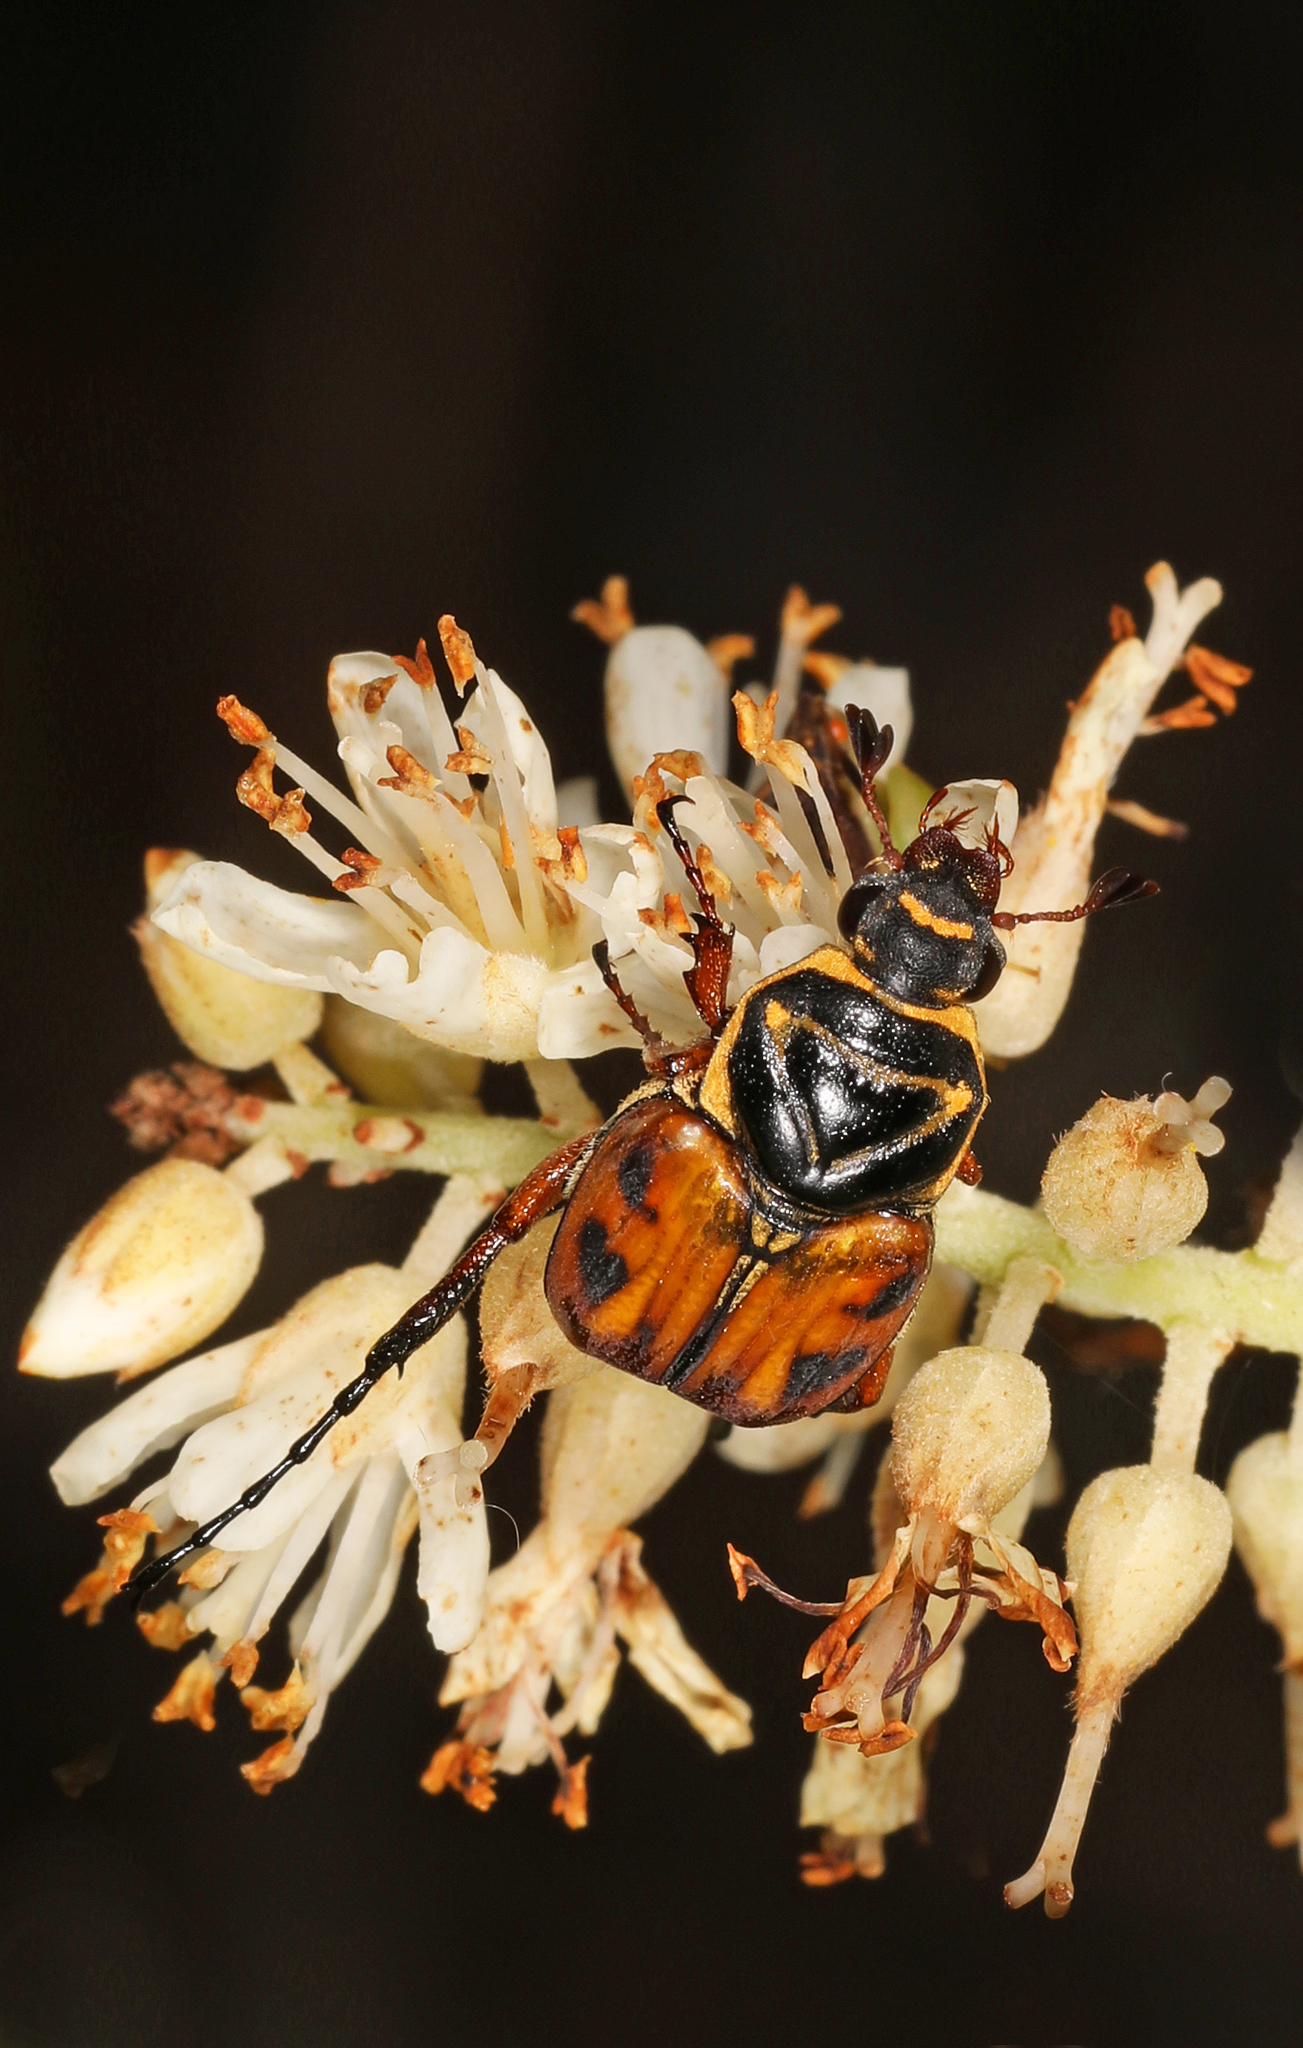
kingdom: Animalia
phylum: Arthropoda
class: Insecta
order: Coleoptera
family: Scarabaeidae
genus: Trigonopeltastes
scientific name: Trigonopeltastes delta
